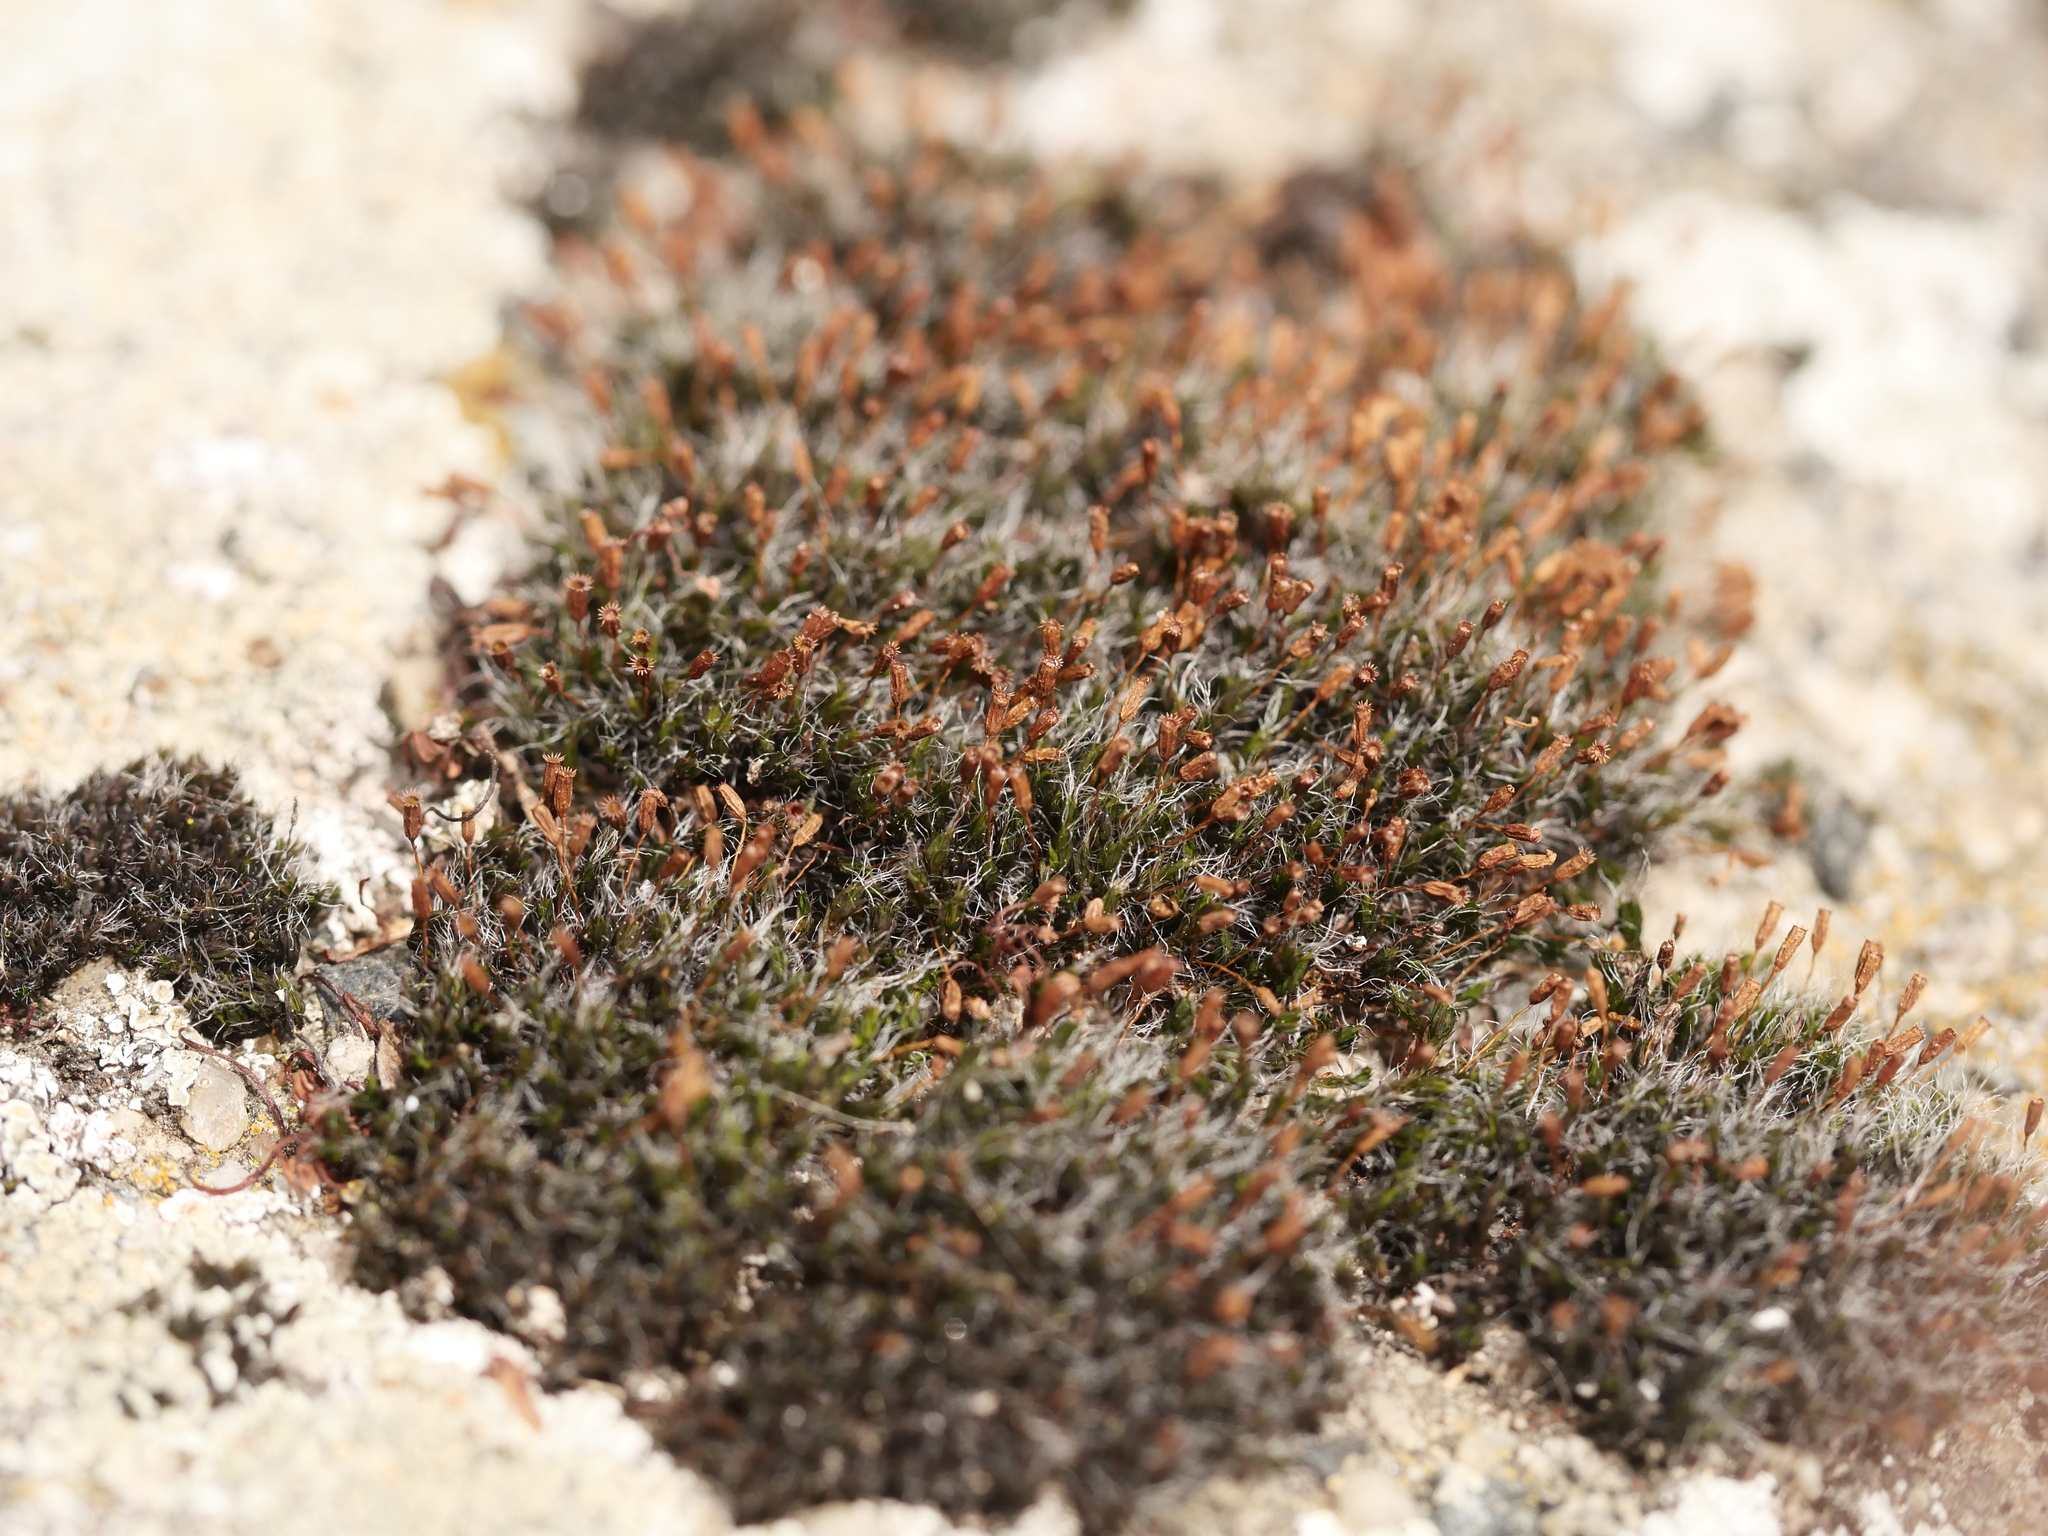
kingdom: Plantae
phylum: Bryophyta
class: Bryopsida
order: Grimmiales
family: Grimmiaceae
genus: Grimmia
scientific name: Grimmia pulvinata
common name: Grey-cushioned grimmia
